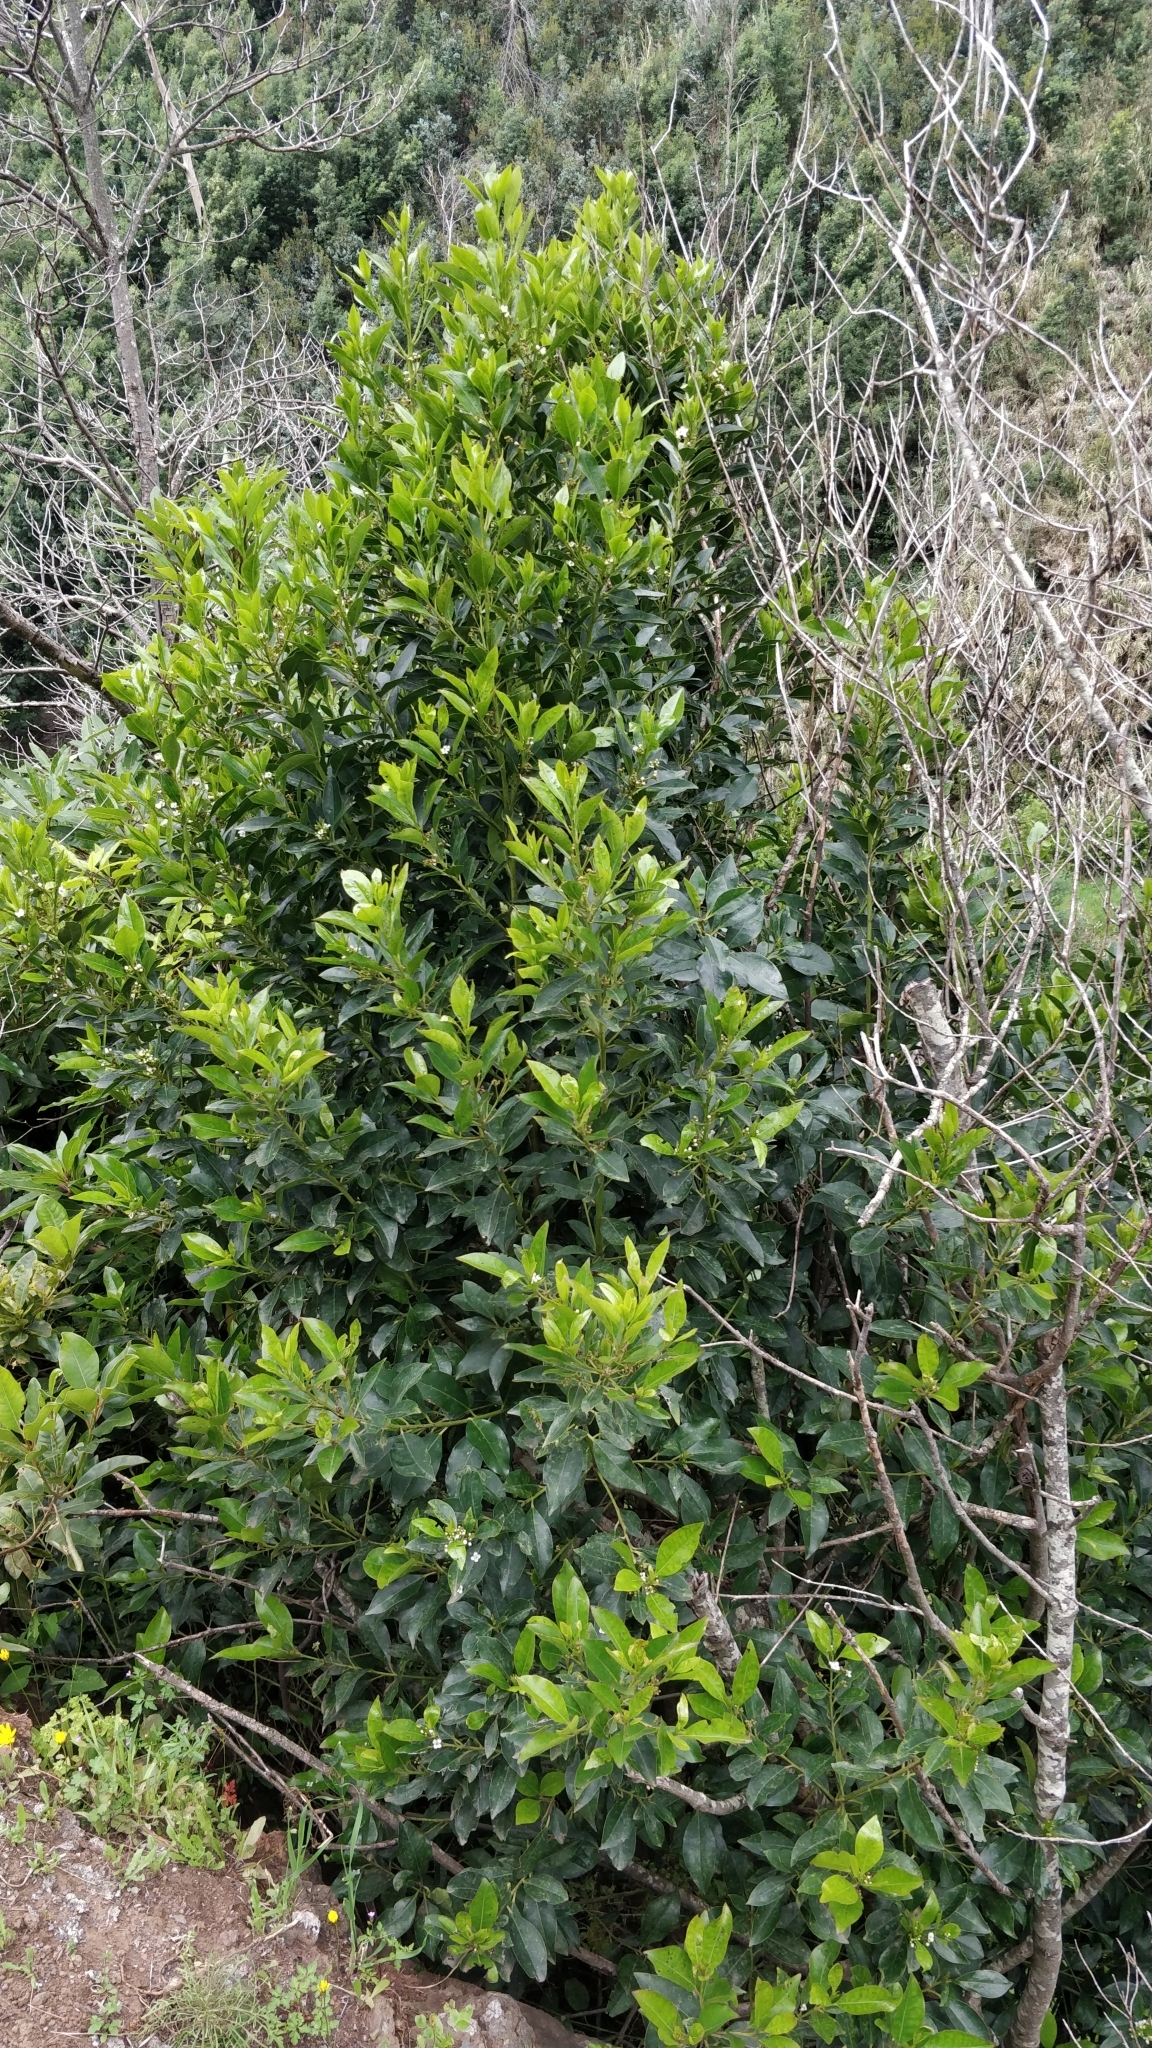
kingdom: Plantae
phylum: Tracheophyta
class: Magnoliopsida
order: Aquifoliales
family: Aquifoliaceae
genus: Ilex
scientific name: Ilex canariensis
